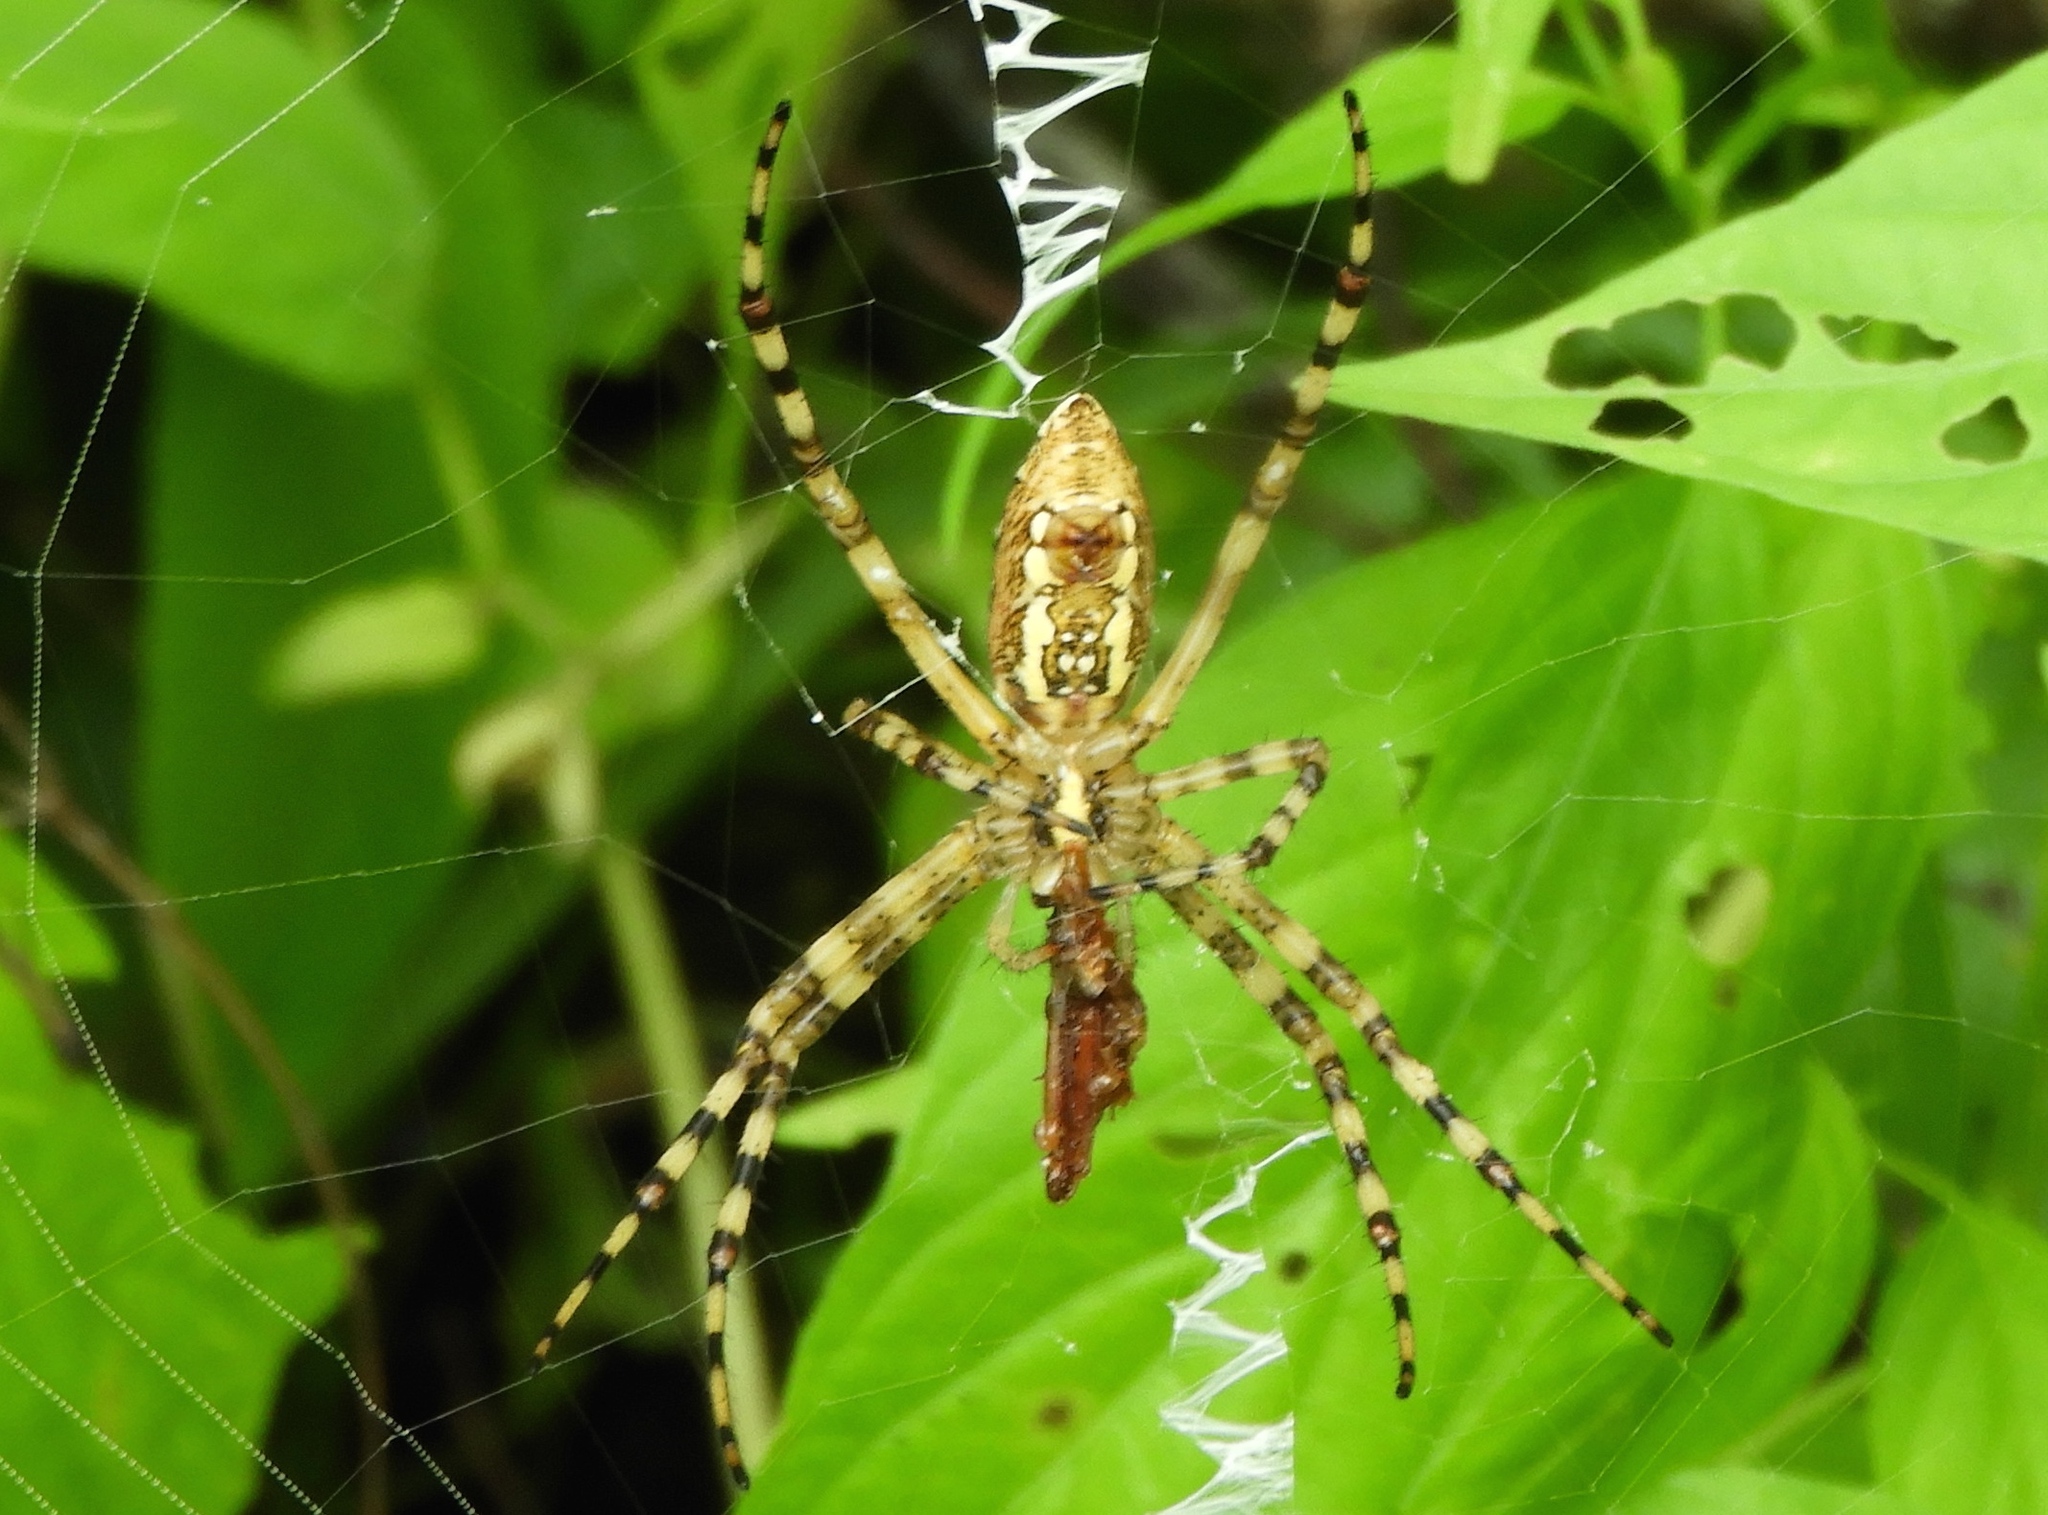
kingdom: Animalia
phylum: Arthropoda
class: Arachnida
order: Araneae
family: Araneidae
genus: Argiope
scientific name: Argiope trifasciata
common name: Banded garden spider
